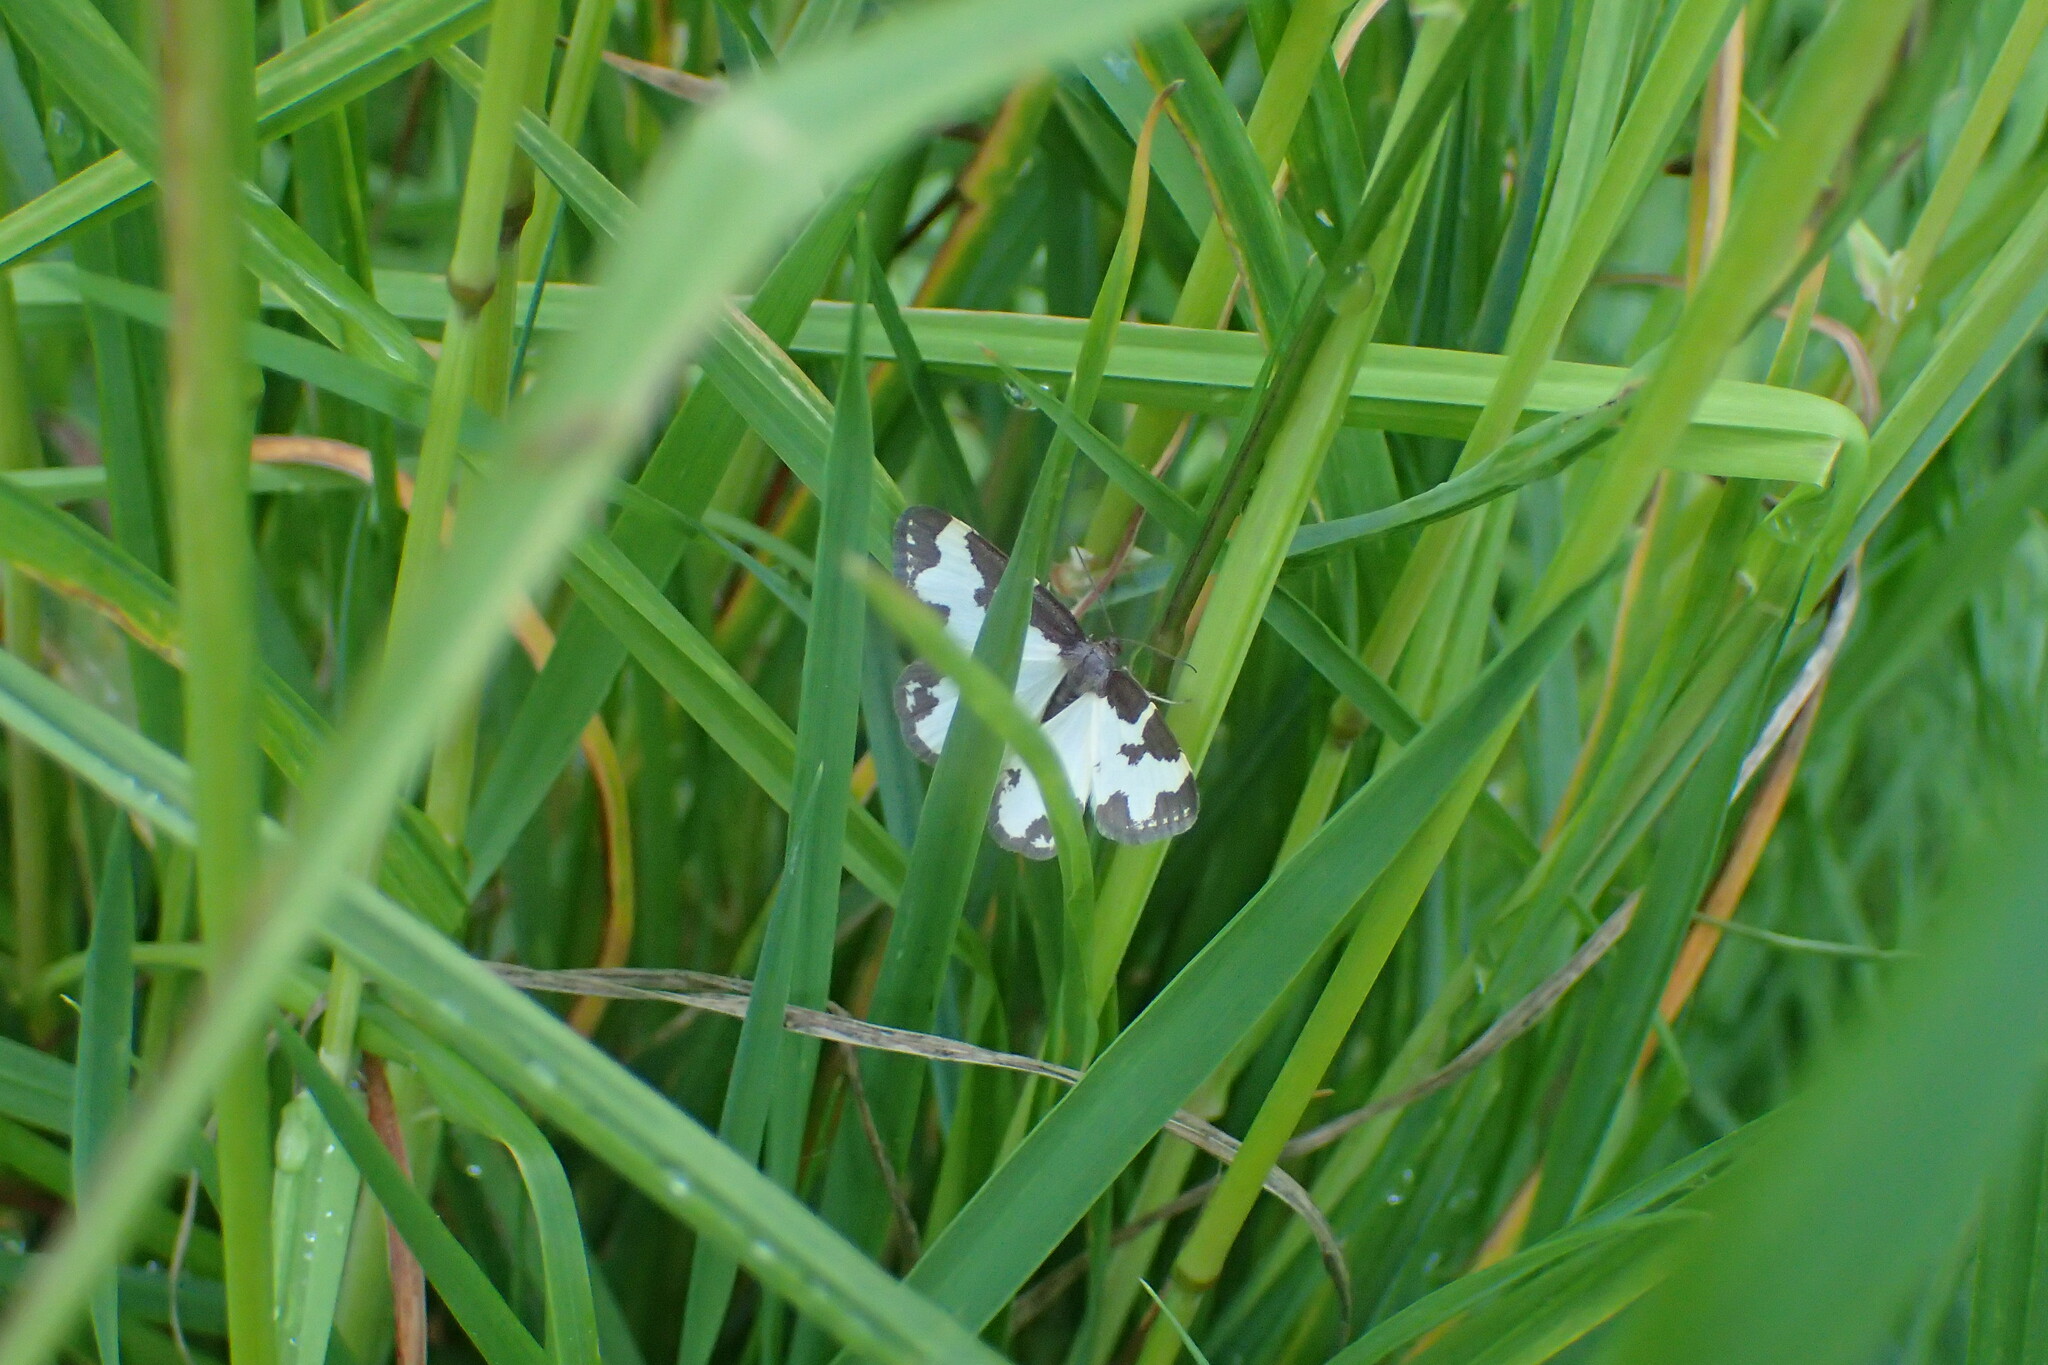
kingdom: Animalia
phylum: Arthropoda
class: Insecta
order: Lepidoptera
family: Geometridae
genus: Lomaspilis
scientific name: Lomaspilis marginata
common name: Clouded border
